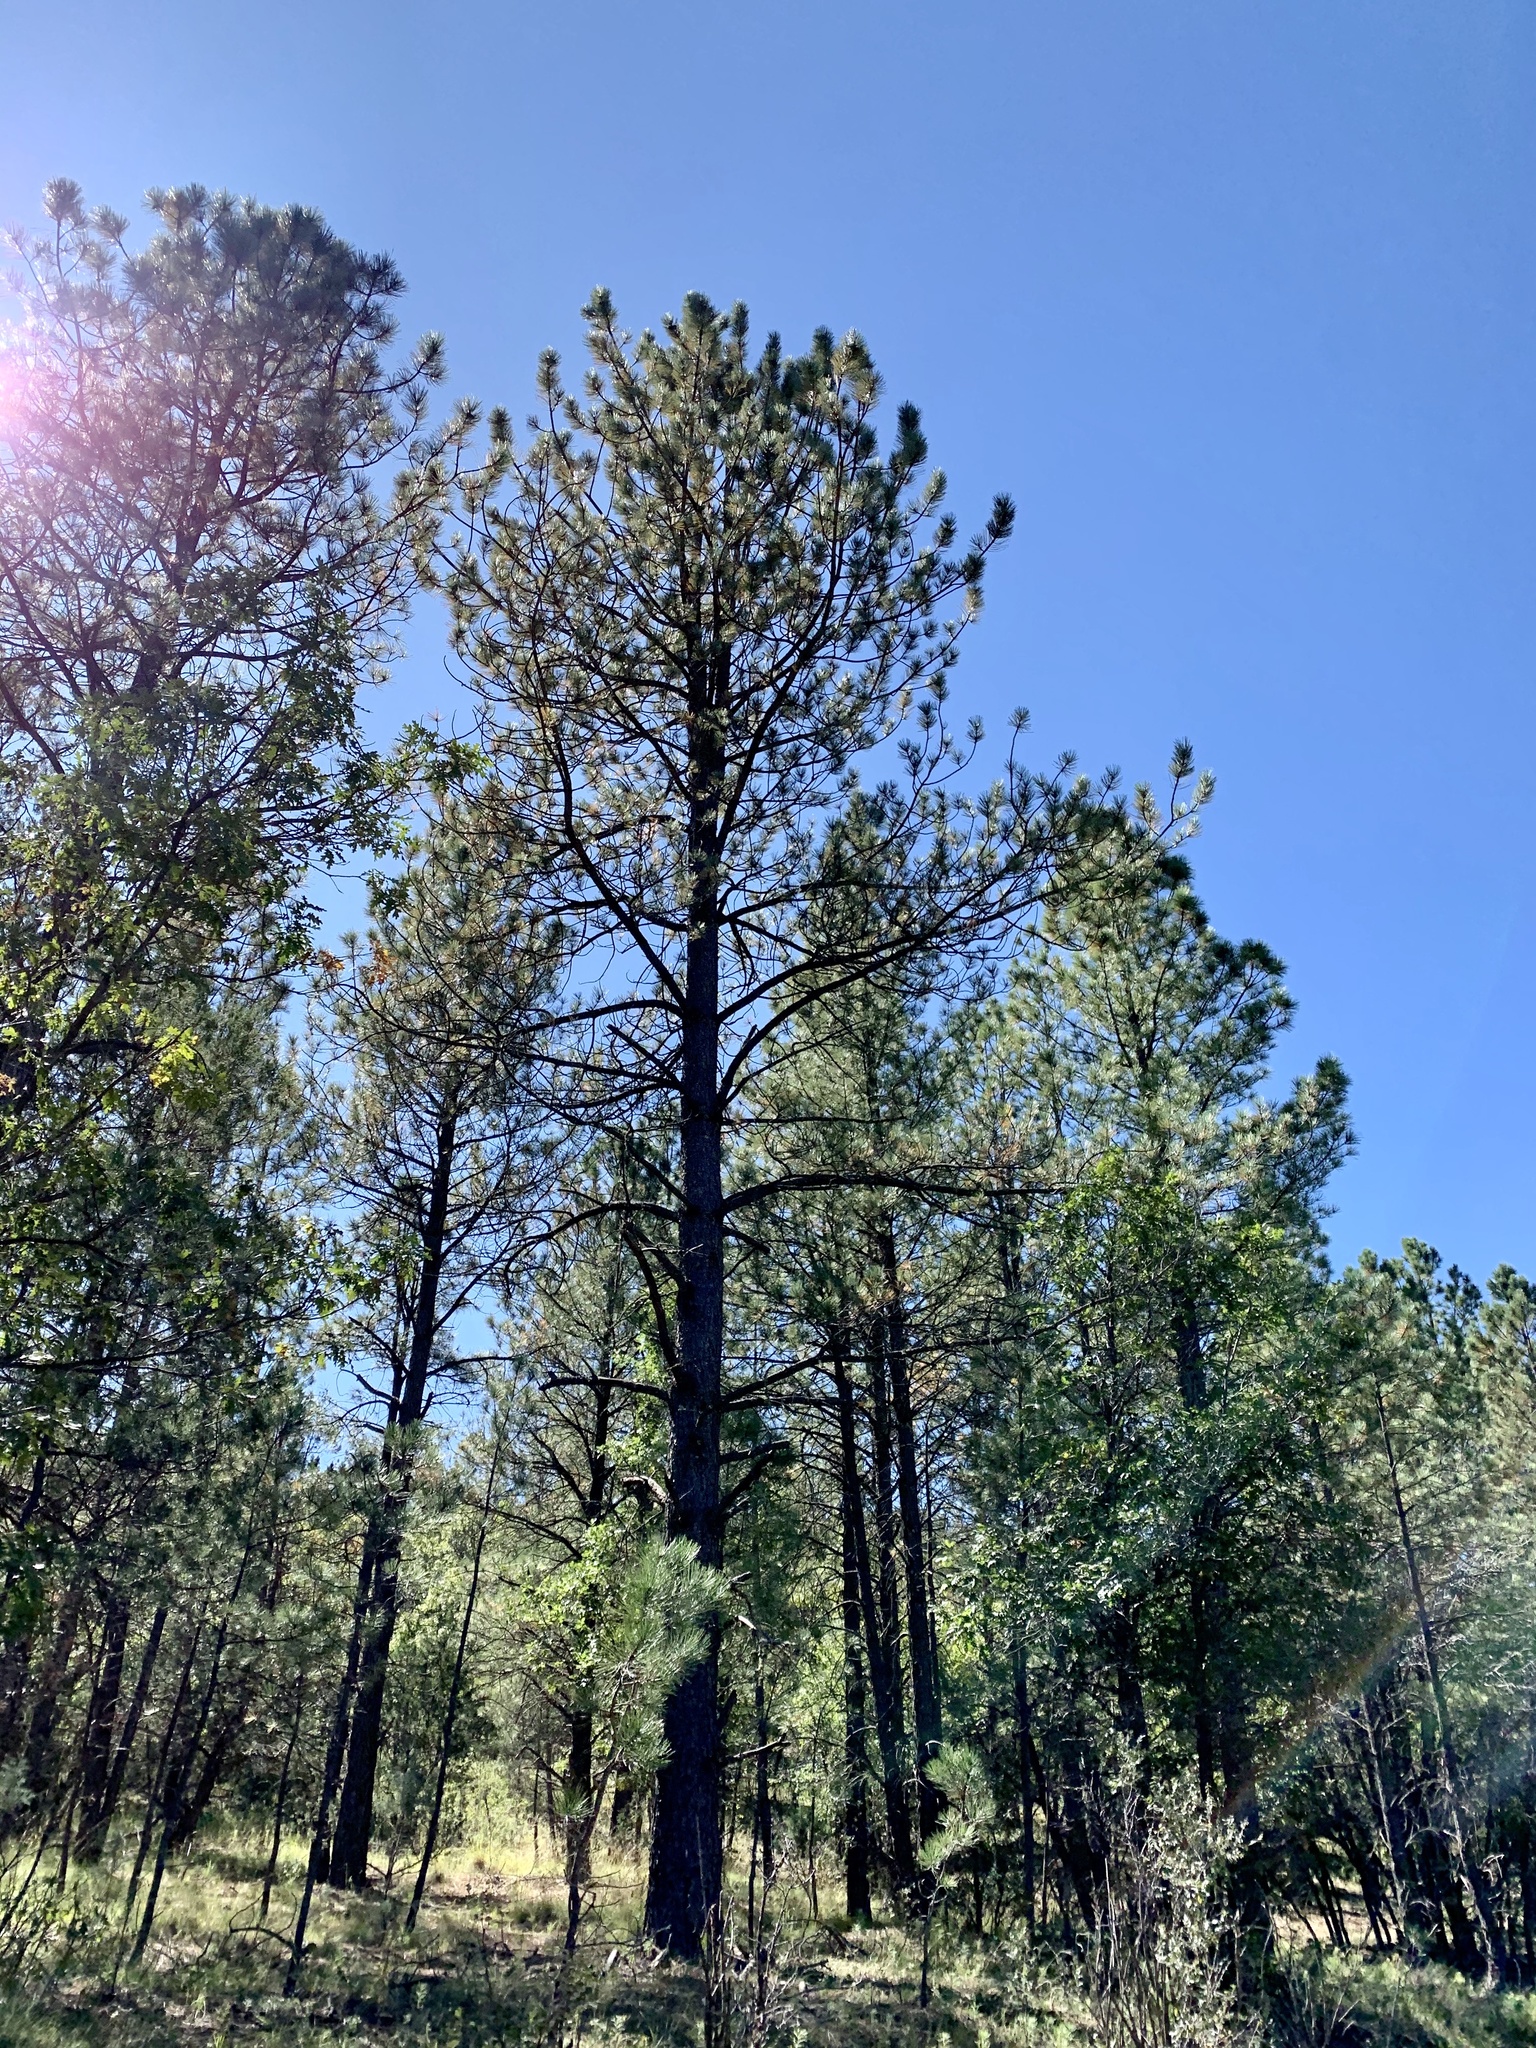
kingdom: Plantae
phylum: Tracheophyta
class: Pinopsida
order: Pinales
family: Pinaceae
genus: Pinus
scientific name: Pinus ponderosa
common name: Western yellow-pine
